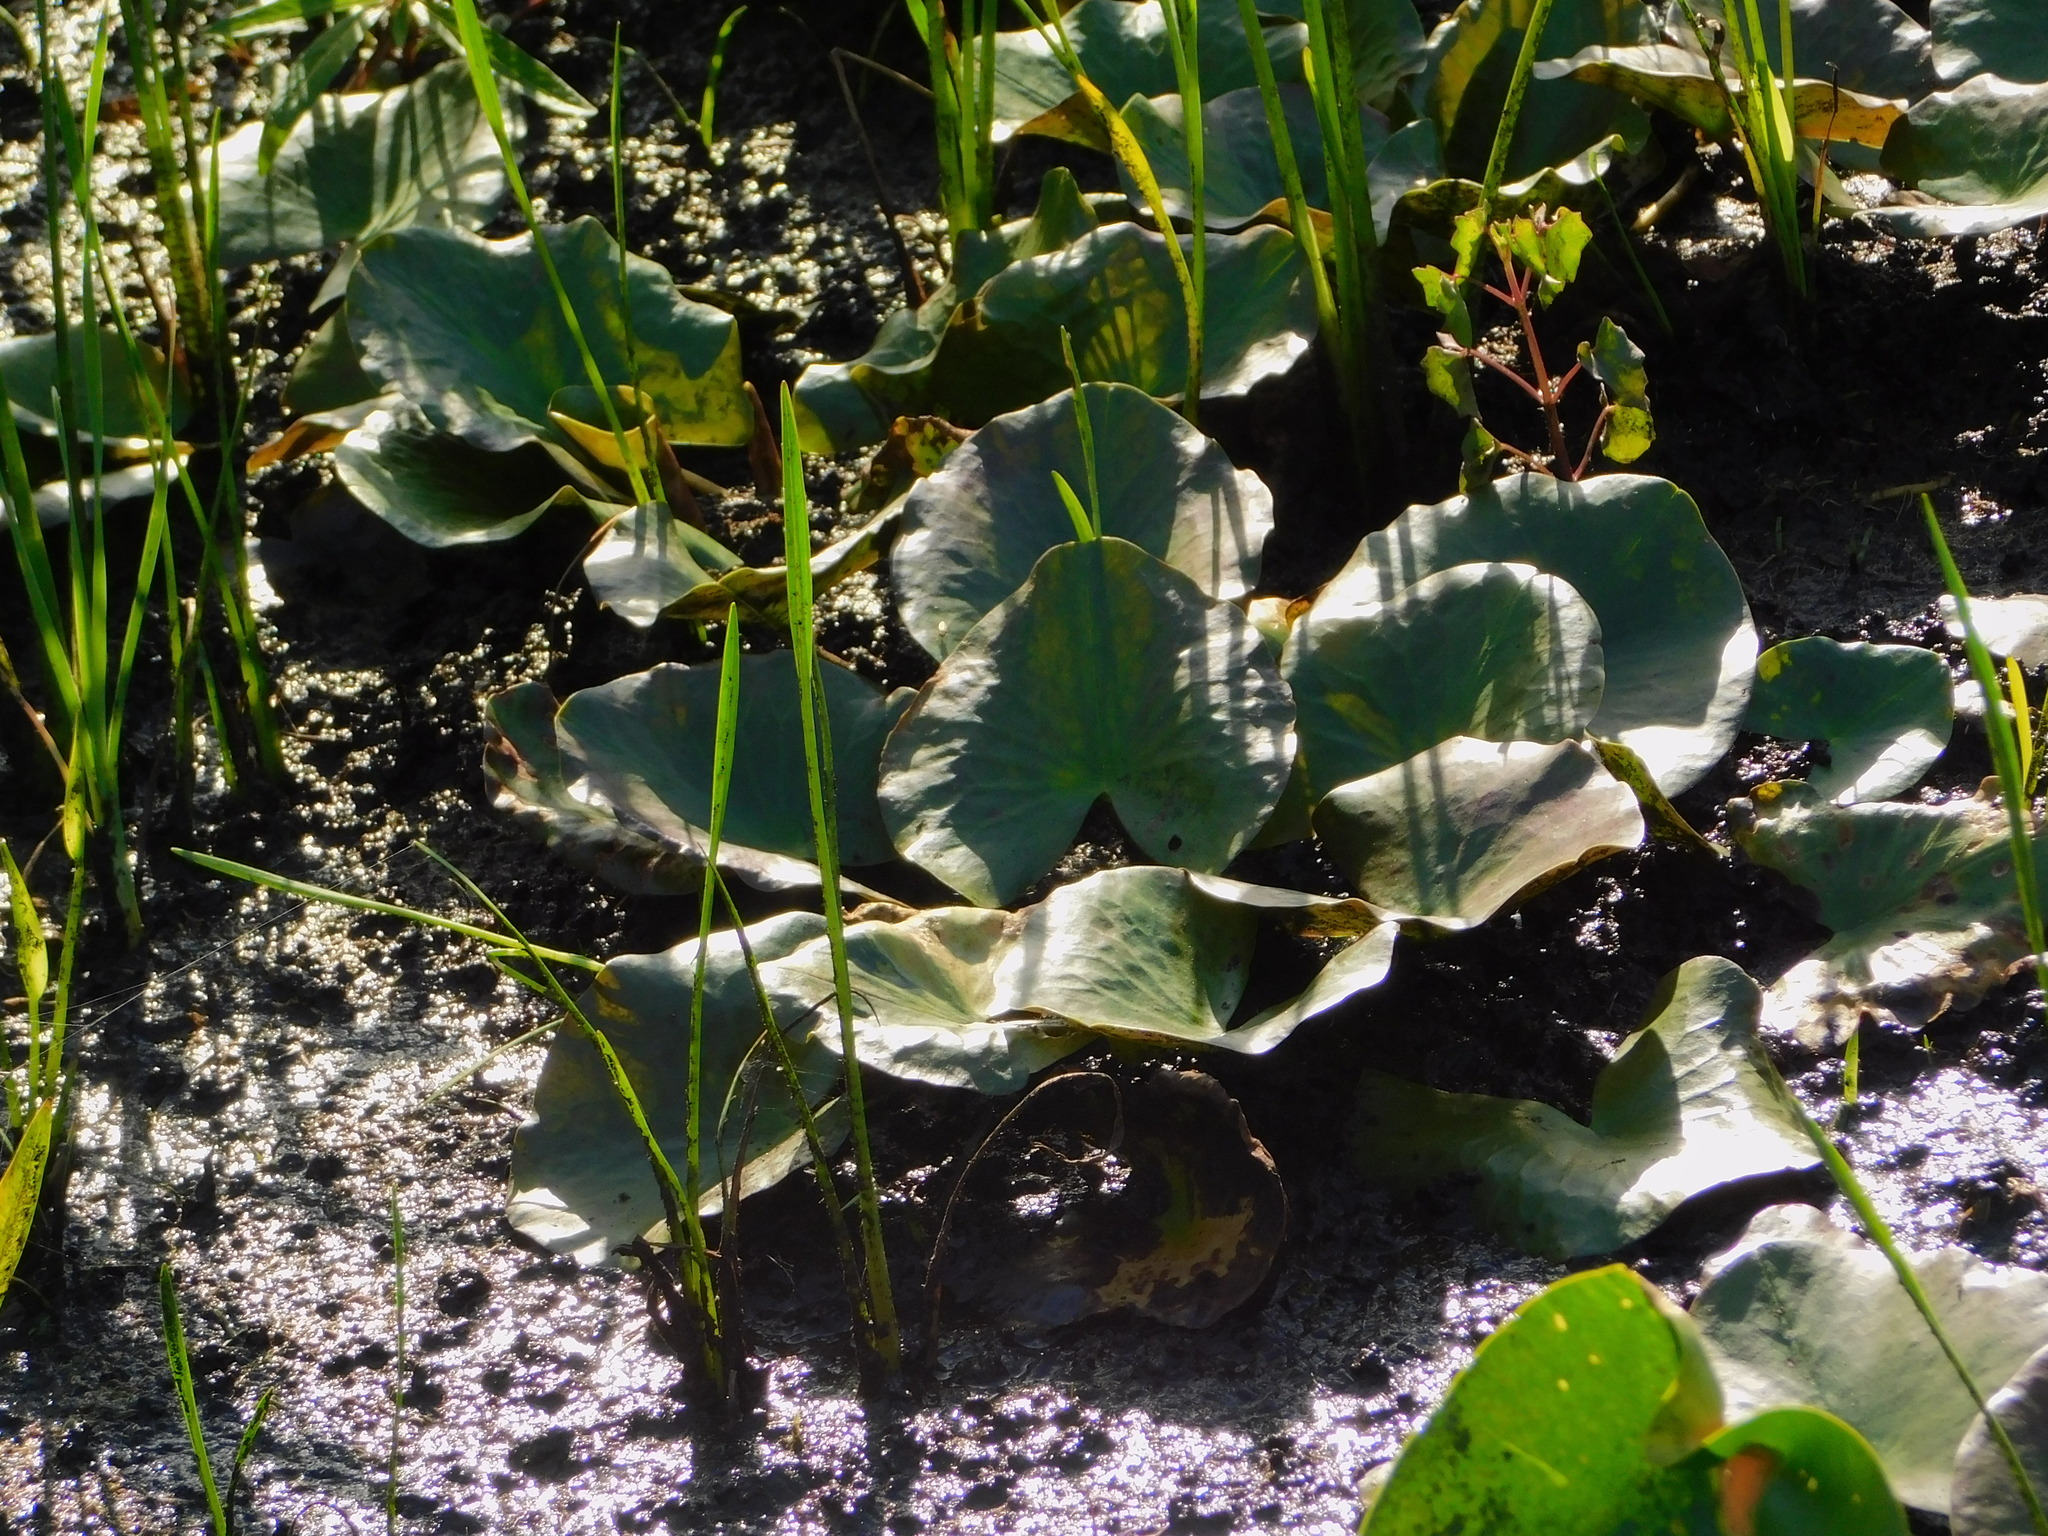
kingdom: Plantae
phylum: Tracheophyta
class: Magnoliopsida
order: Nymphaeales
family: Nymphaeaceae
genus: Nuphar
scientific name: Nuphar advena
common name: Spatter-dock
